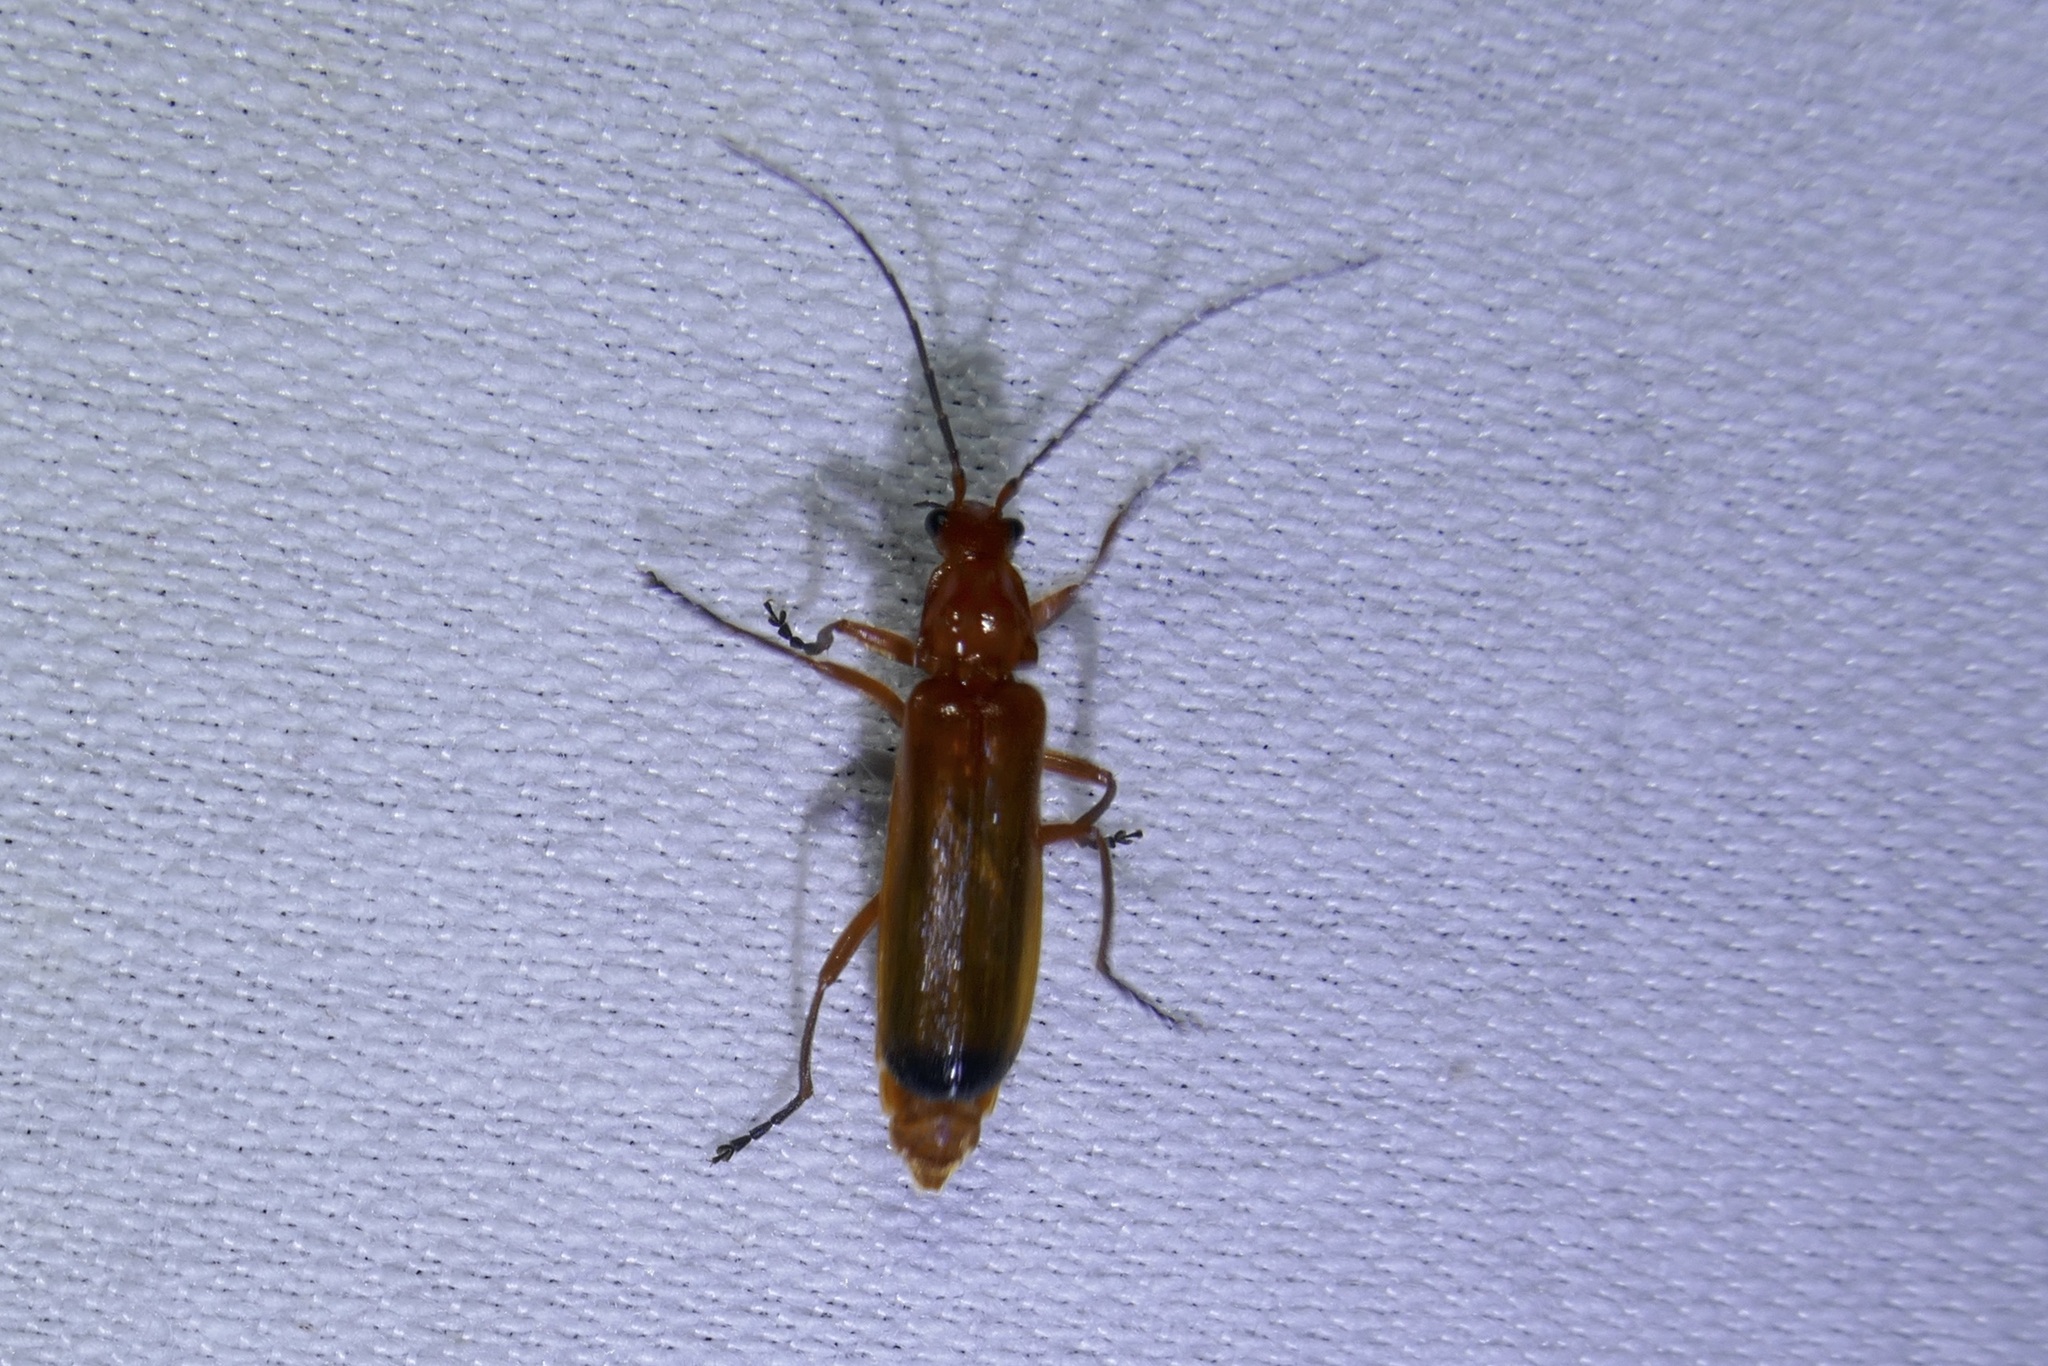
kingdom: Animalia
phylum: Arthropoda
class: Insecta
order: Coleoptera
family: Cantharidae
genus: Rhagonycha
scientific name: Rhagonycha fulva
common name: Common red soldier beetle
